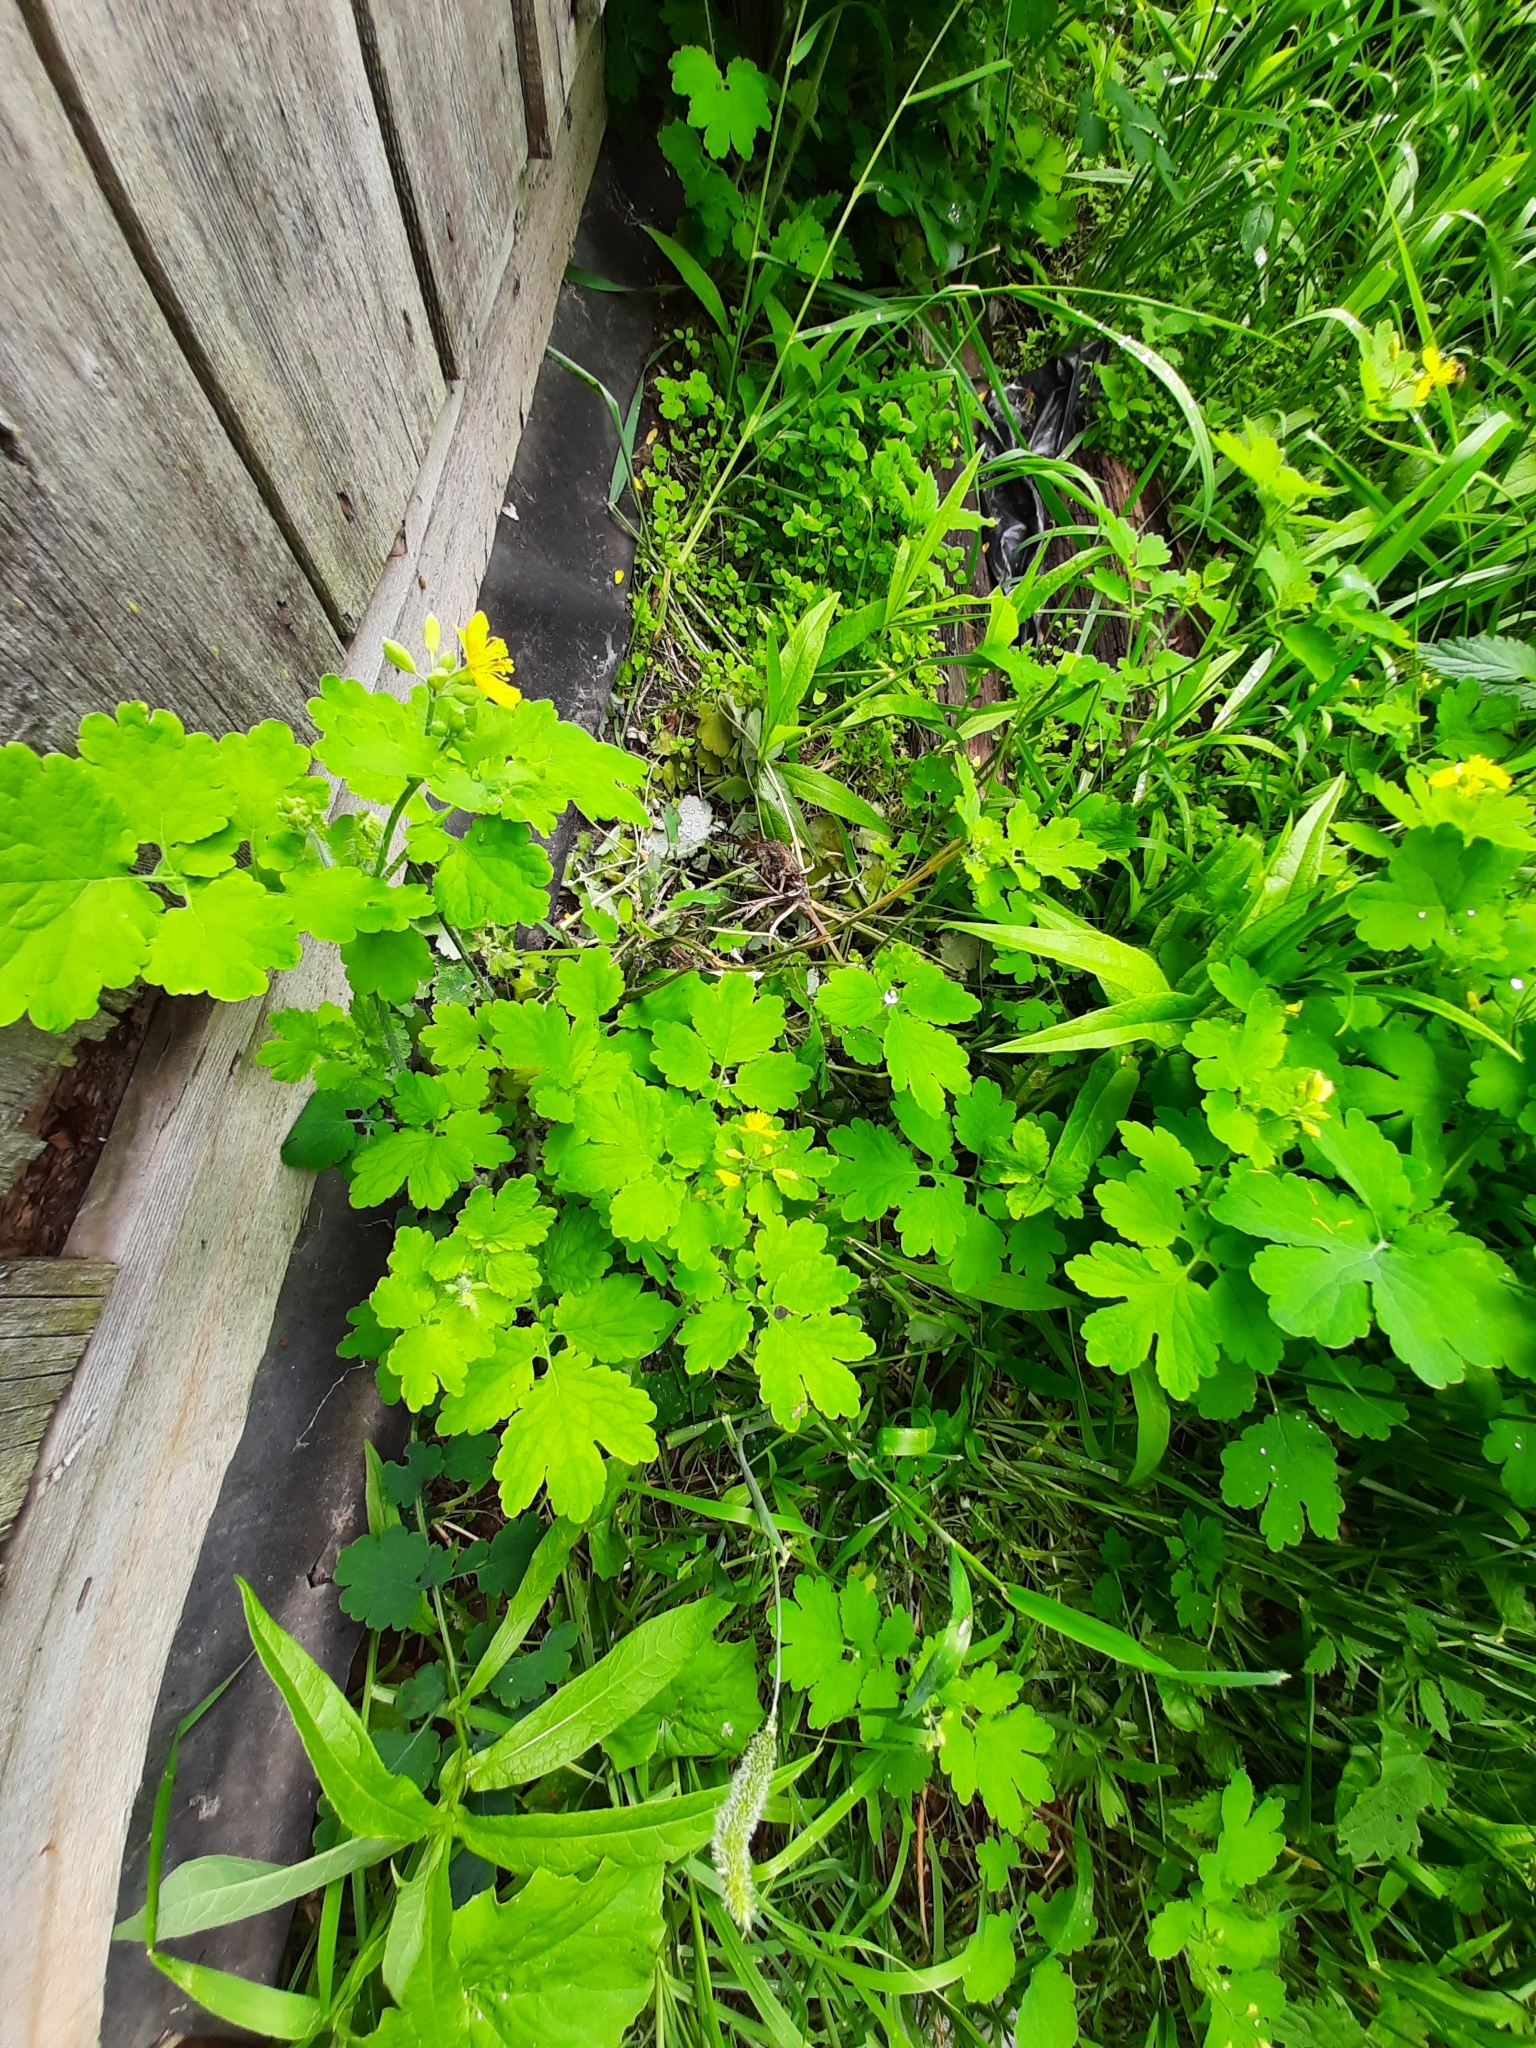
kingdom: Plantae
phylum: Tracheophyta
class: Magnoliopsida
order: Ranunculales
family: Papaveraceae
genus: Chelidonium
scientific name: Chelidonium majus
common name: Greater celandine
